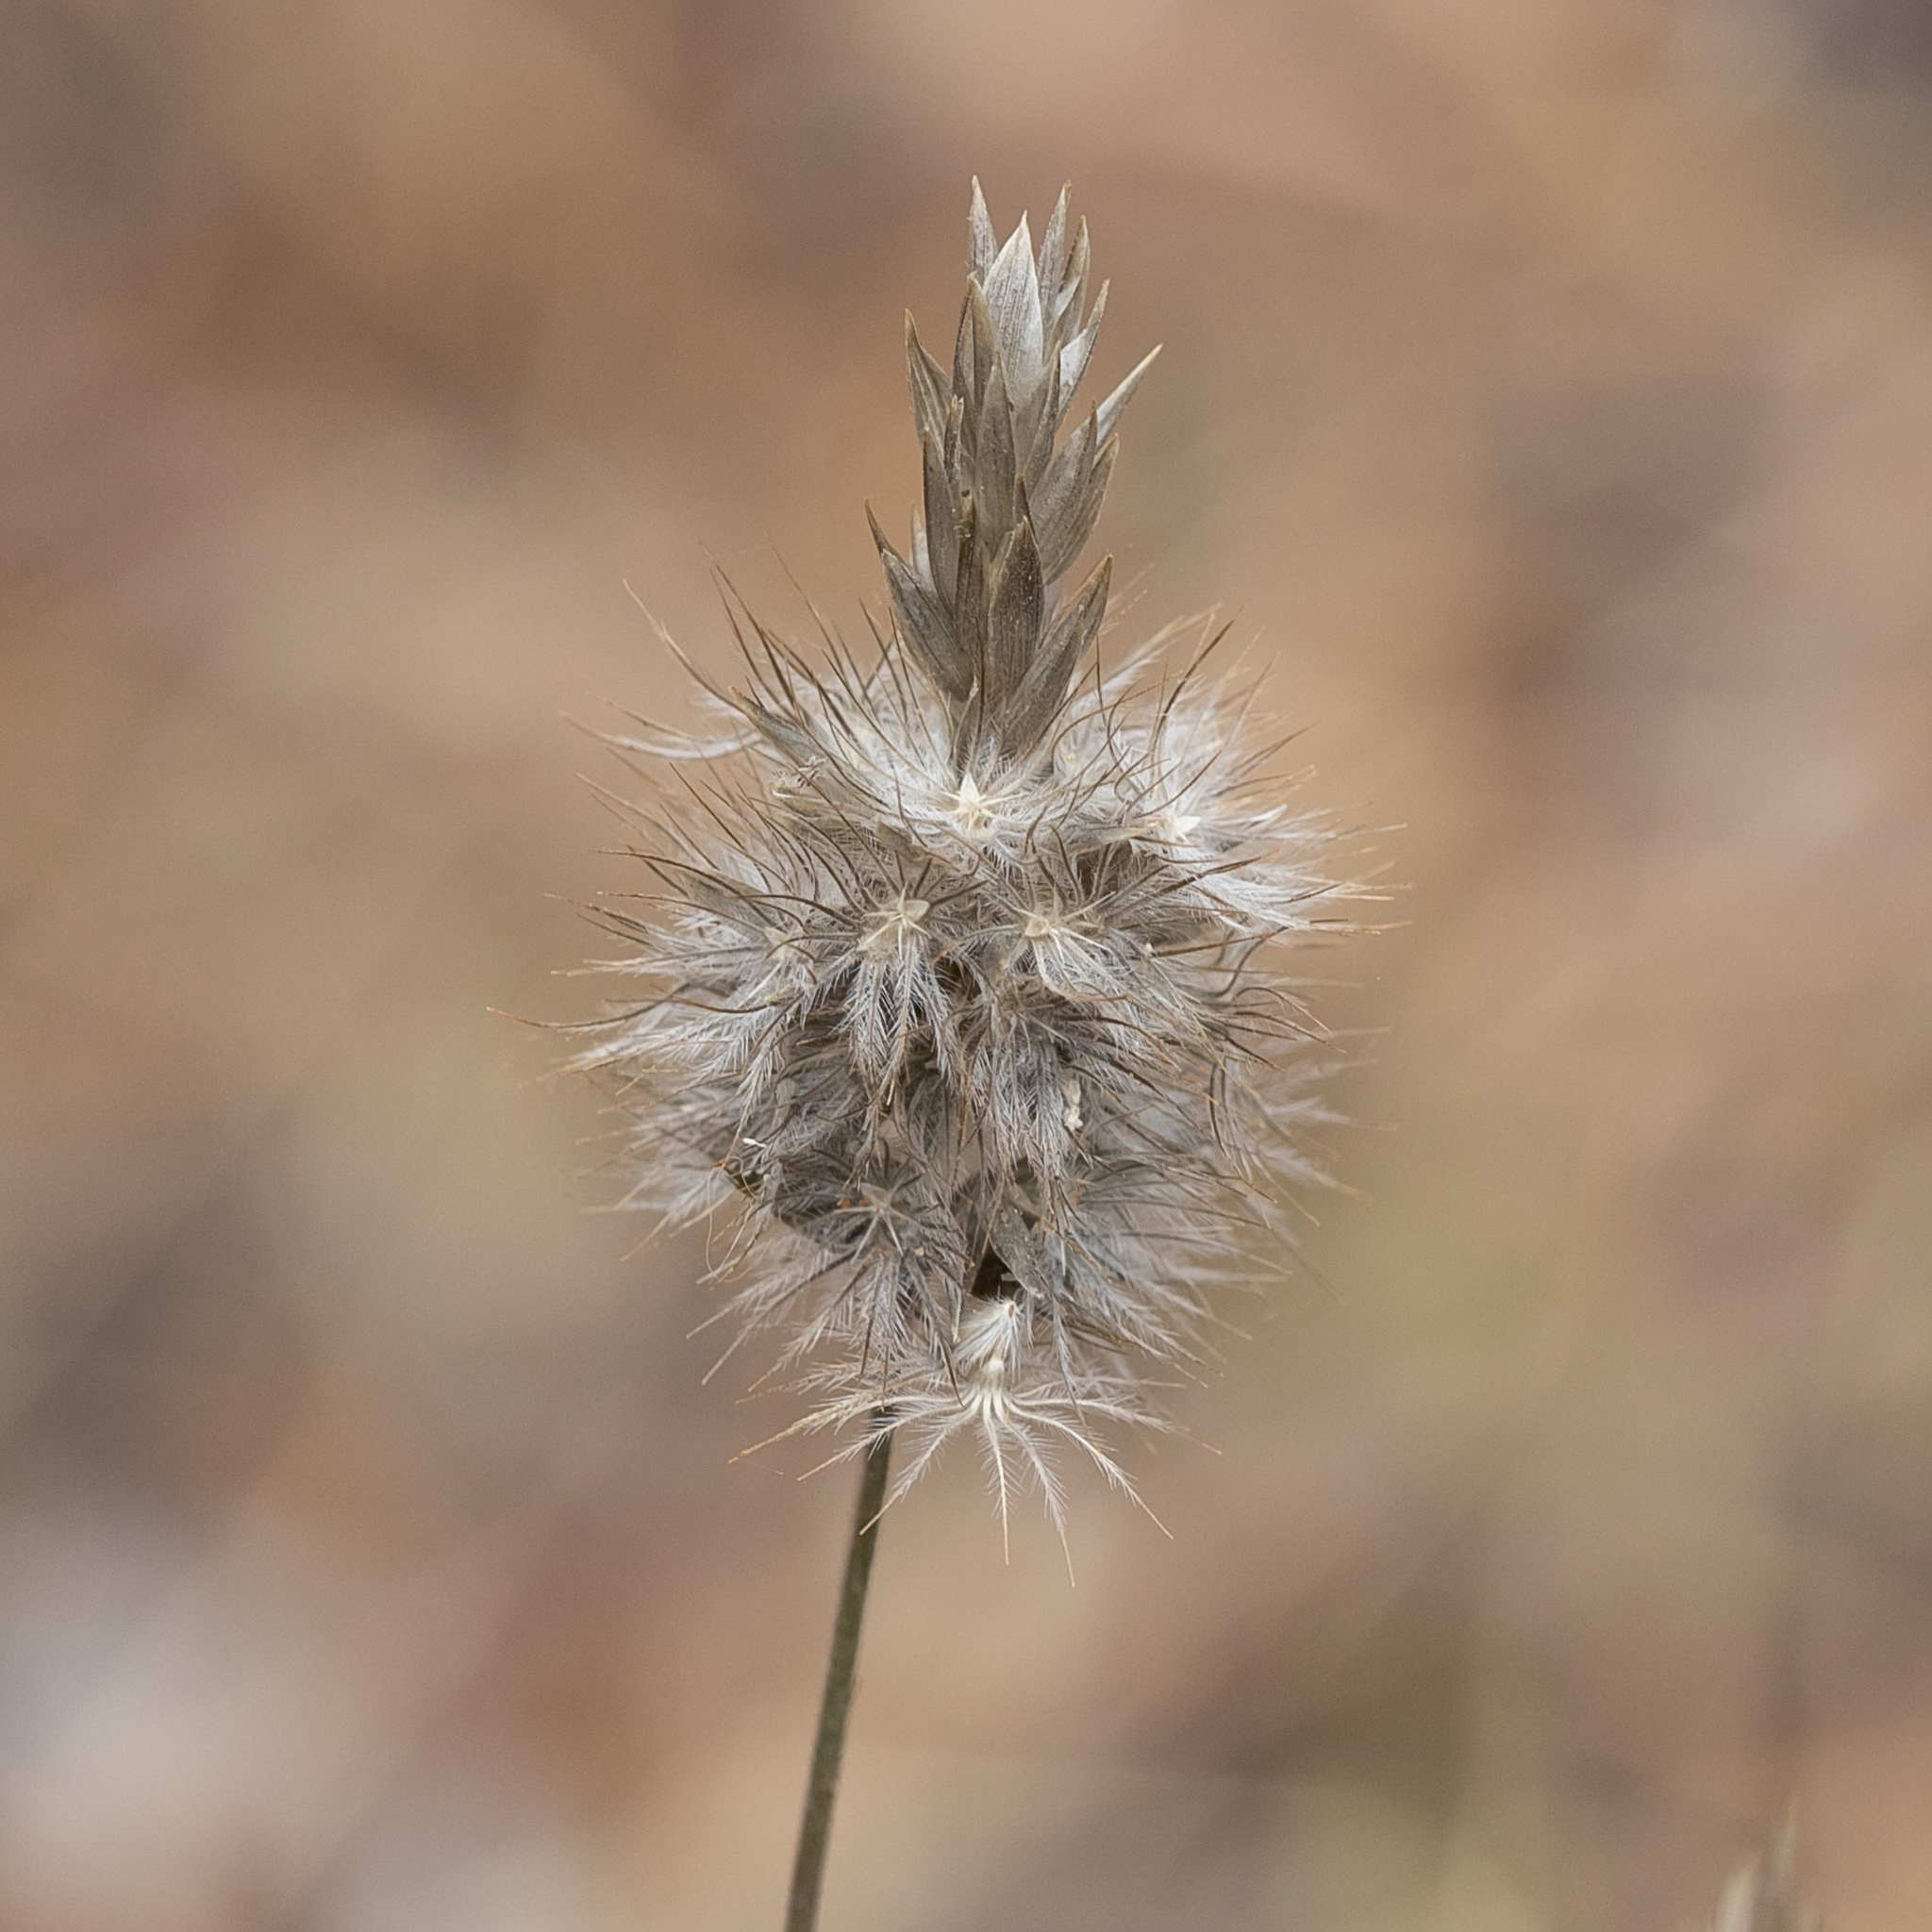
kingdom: Plantae
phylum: Tracheophyta
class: Liliopsida
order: Poales
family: Poaceae
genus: Enneapogon
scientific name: Enneapogon nigricans
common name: Pappus grass
